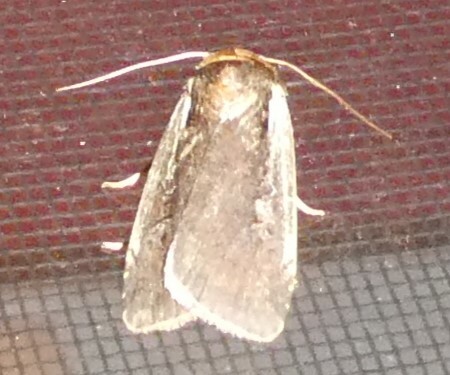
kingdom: Animalia
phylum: Arthropoda
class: Insecta
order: Lepidoptera
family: Noctuidae
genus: Ochropleura
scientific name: Ochropleura implecta
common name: Flame-shouldered dart
